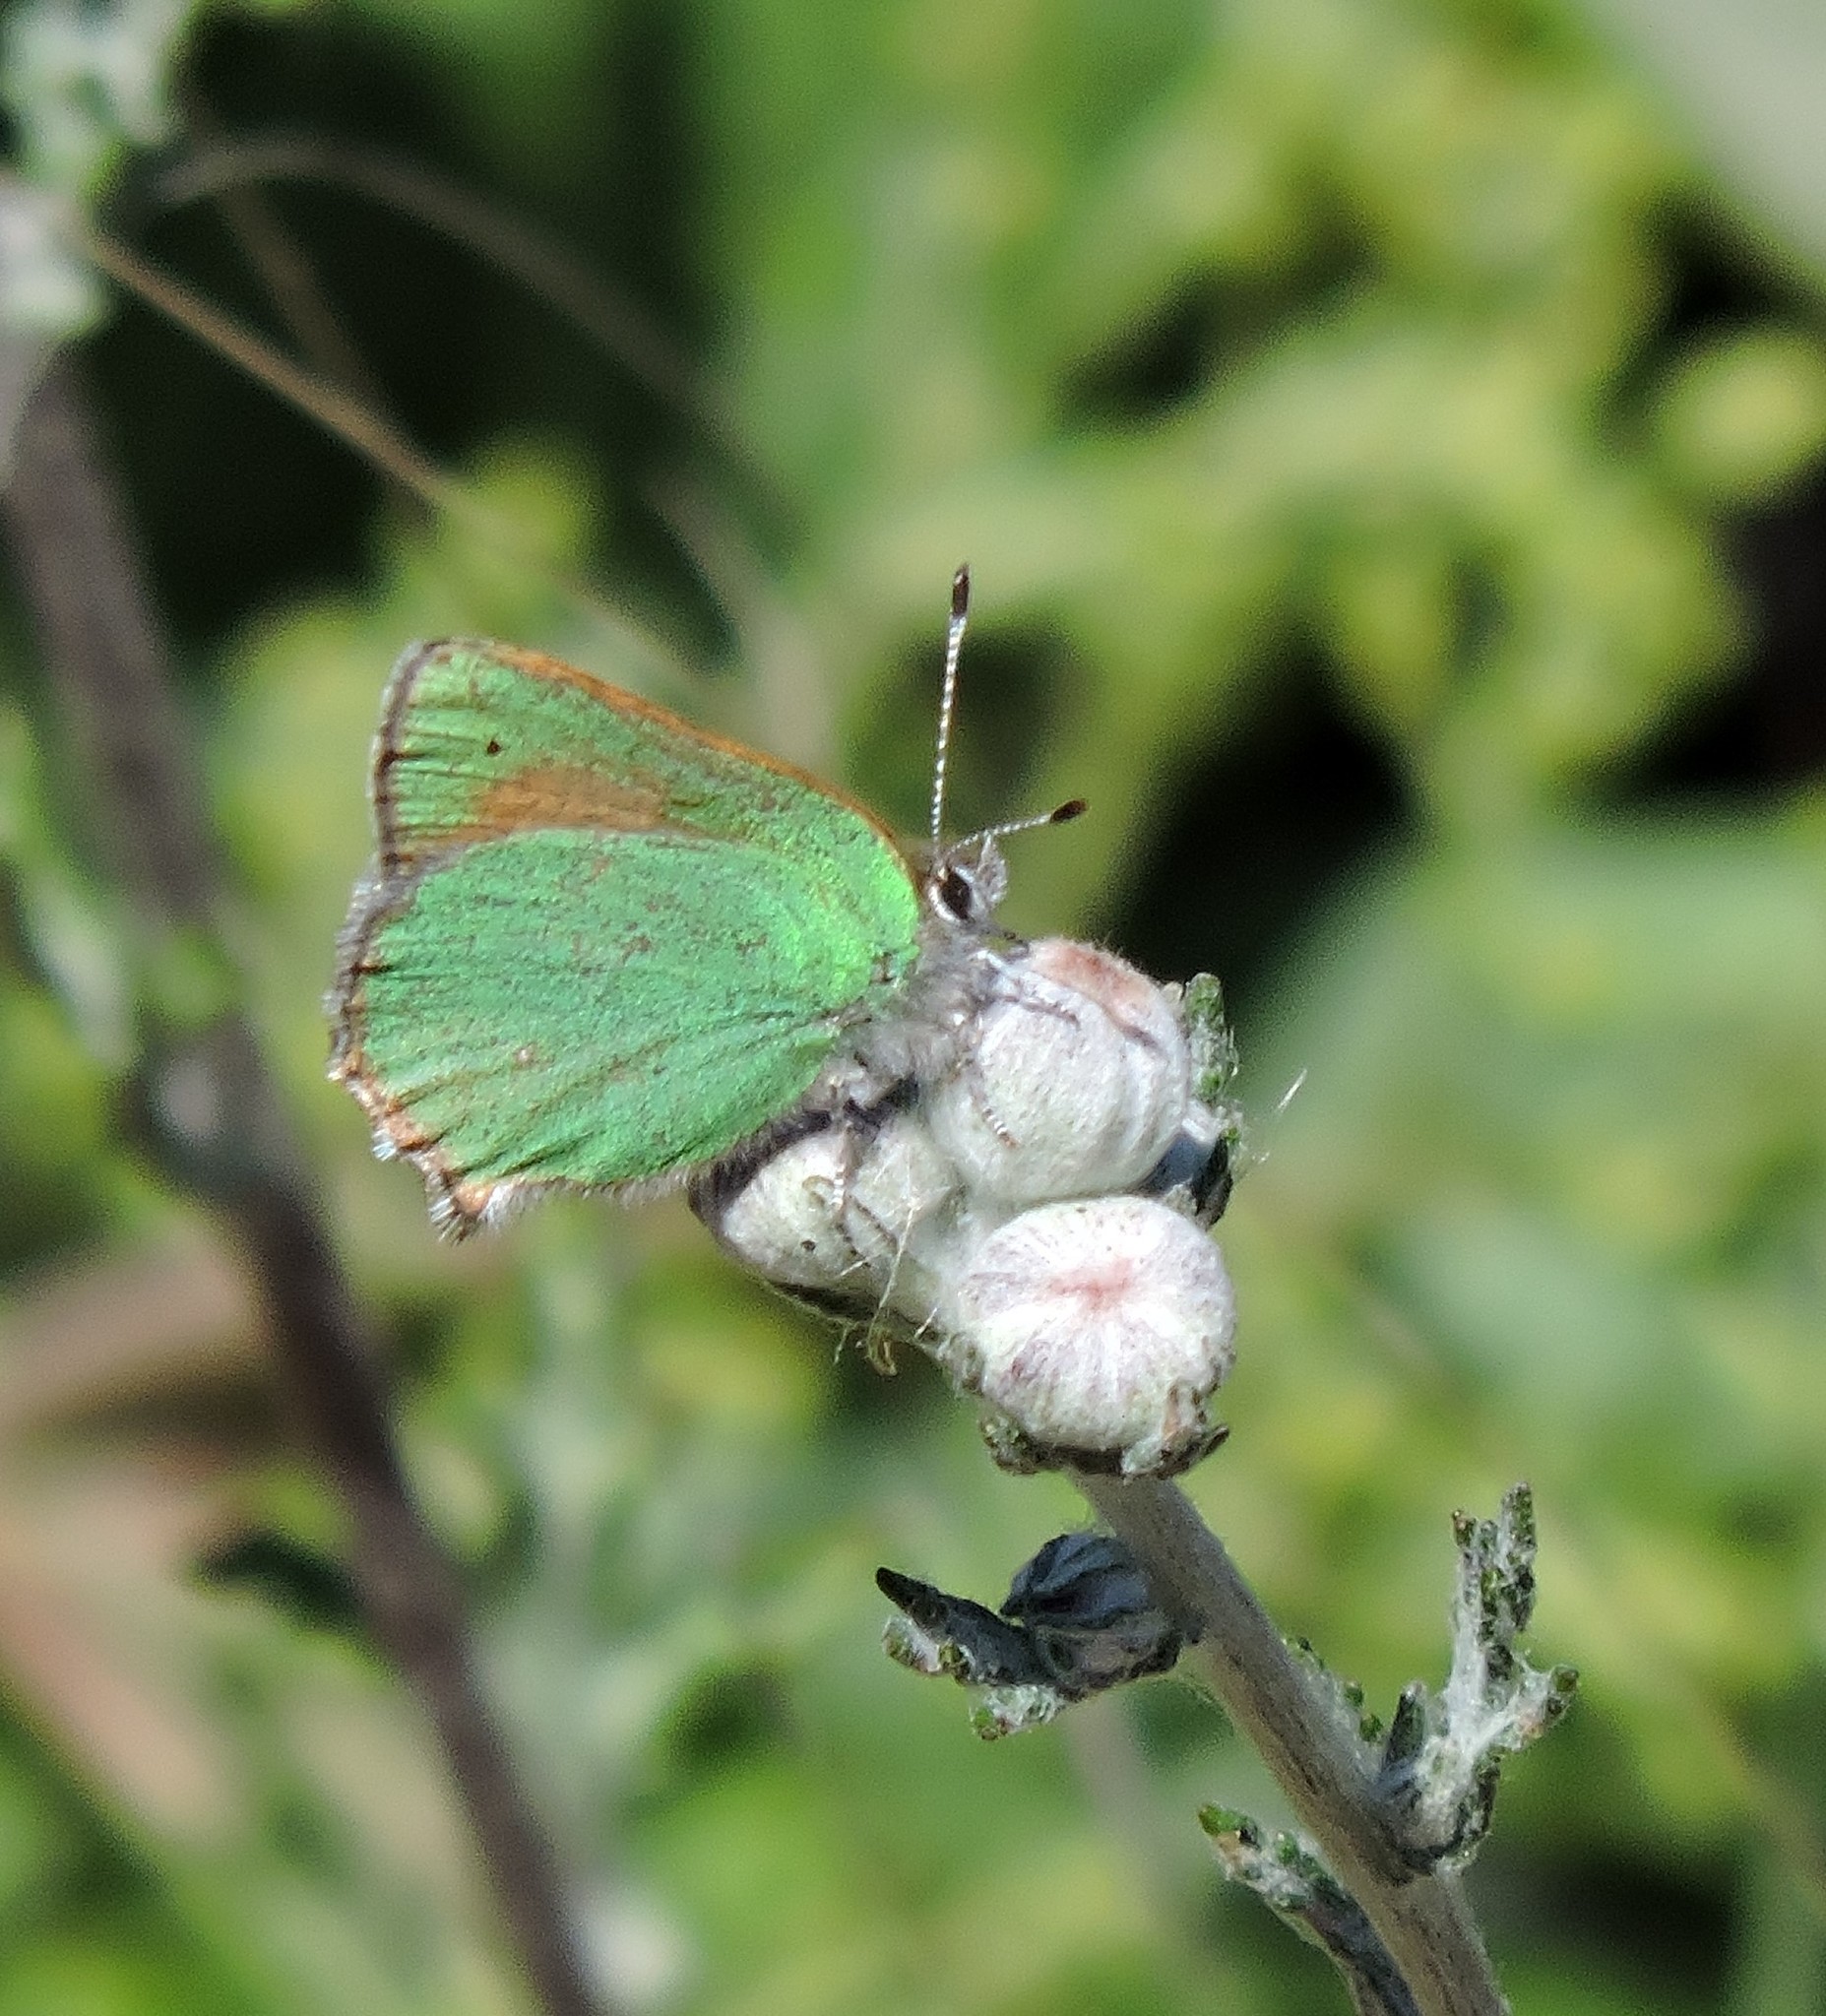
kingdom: Animalia
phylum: Arthropoda
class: Insecta
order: Lepidoptera
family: Lycaenidae
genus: Callophrys
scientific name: Callophrys dumetorum
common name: Bramble hairstreak
